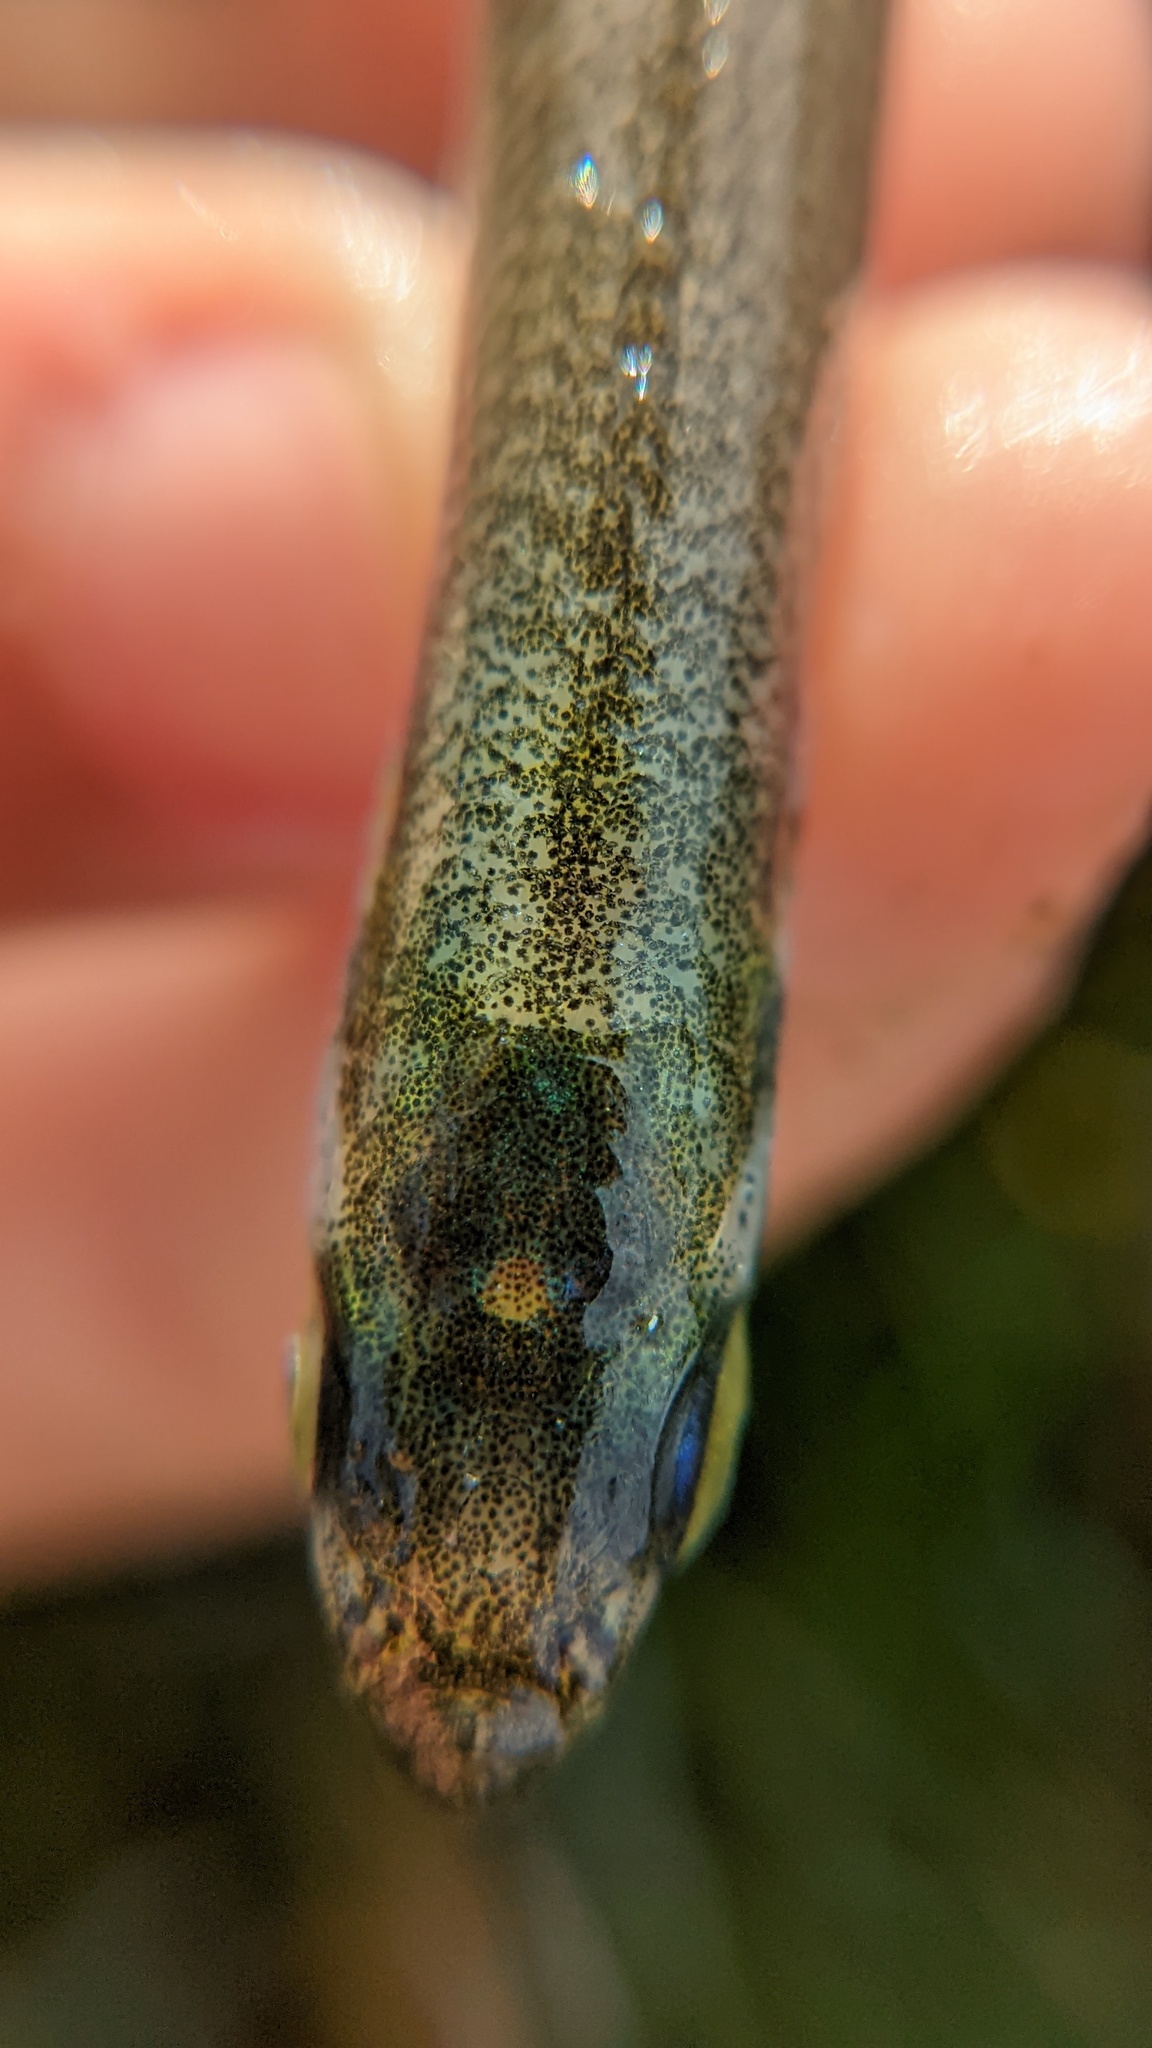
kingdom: Animalia
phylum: Chordata
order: Atheriniformes
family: Atherinopsidae
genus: Atherinops
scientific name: Atherinops affinis
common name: Topsmelt
